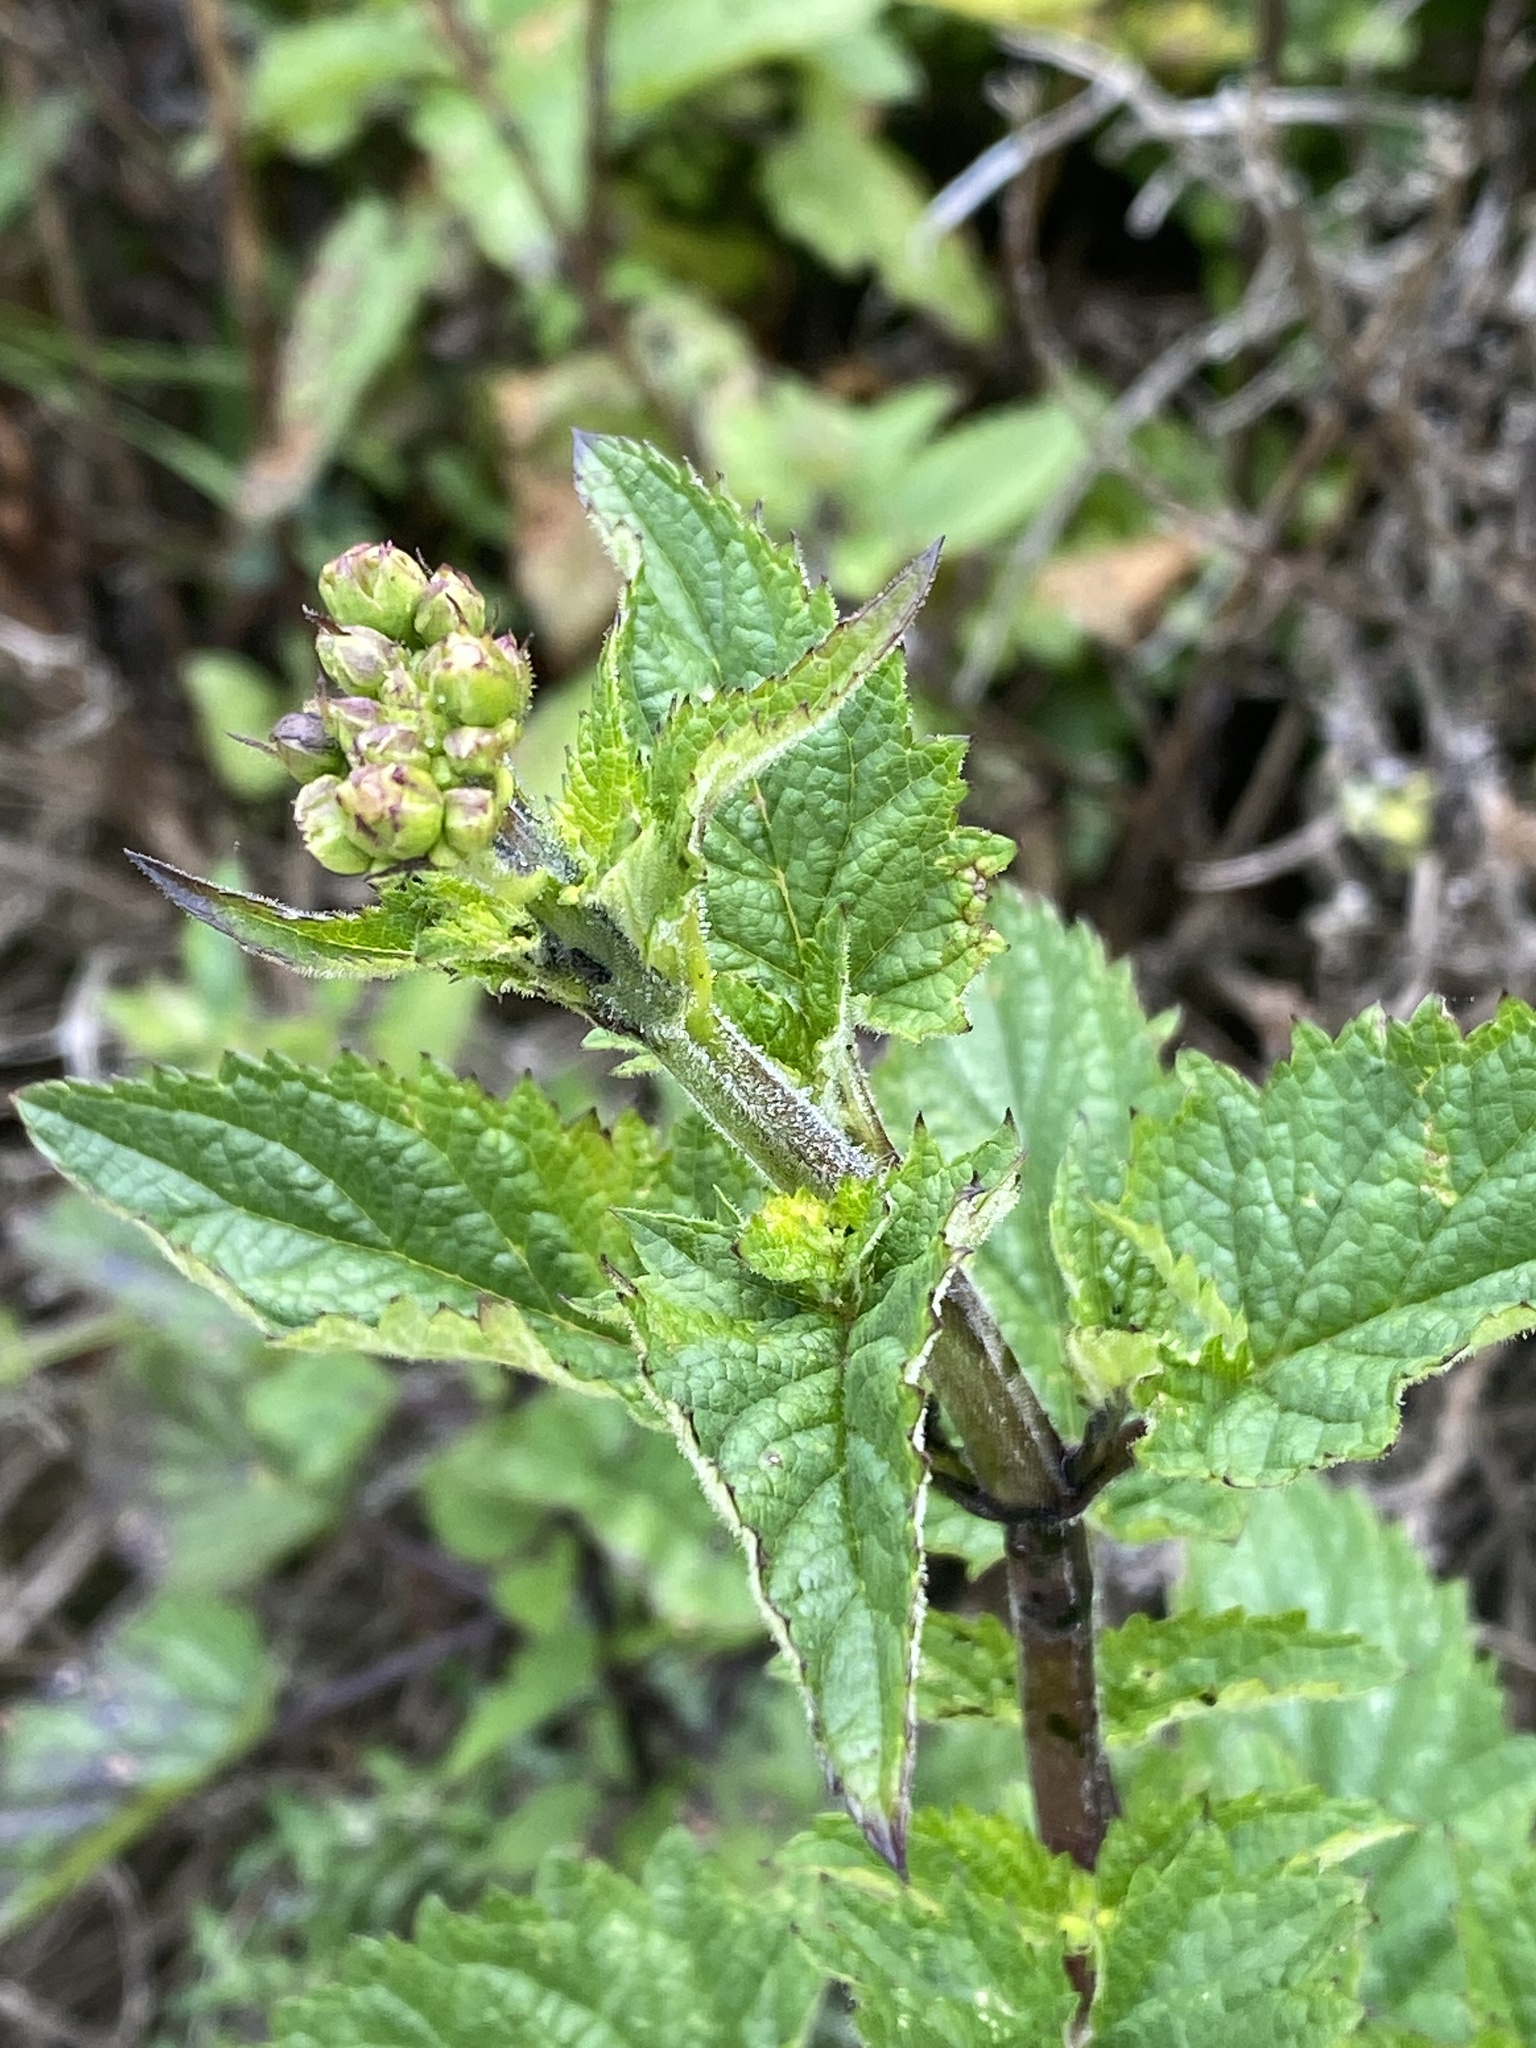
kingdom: Plantae
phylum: Tracheophyta
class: Magnoliopsida
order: Lamiales
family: Scrophulariaceae
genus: Scrophularia
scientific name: Scrophularia californica
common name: California figwort
